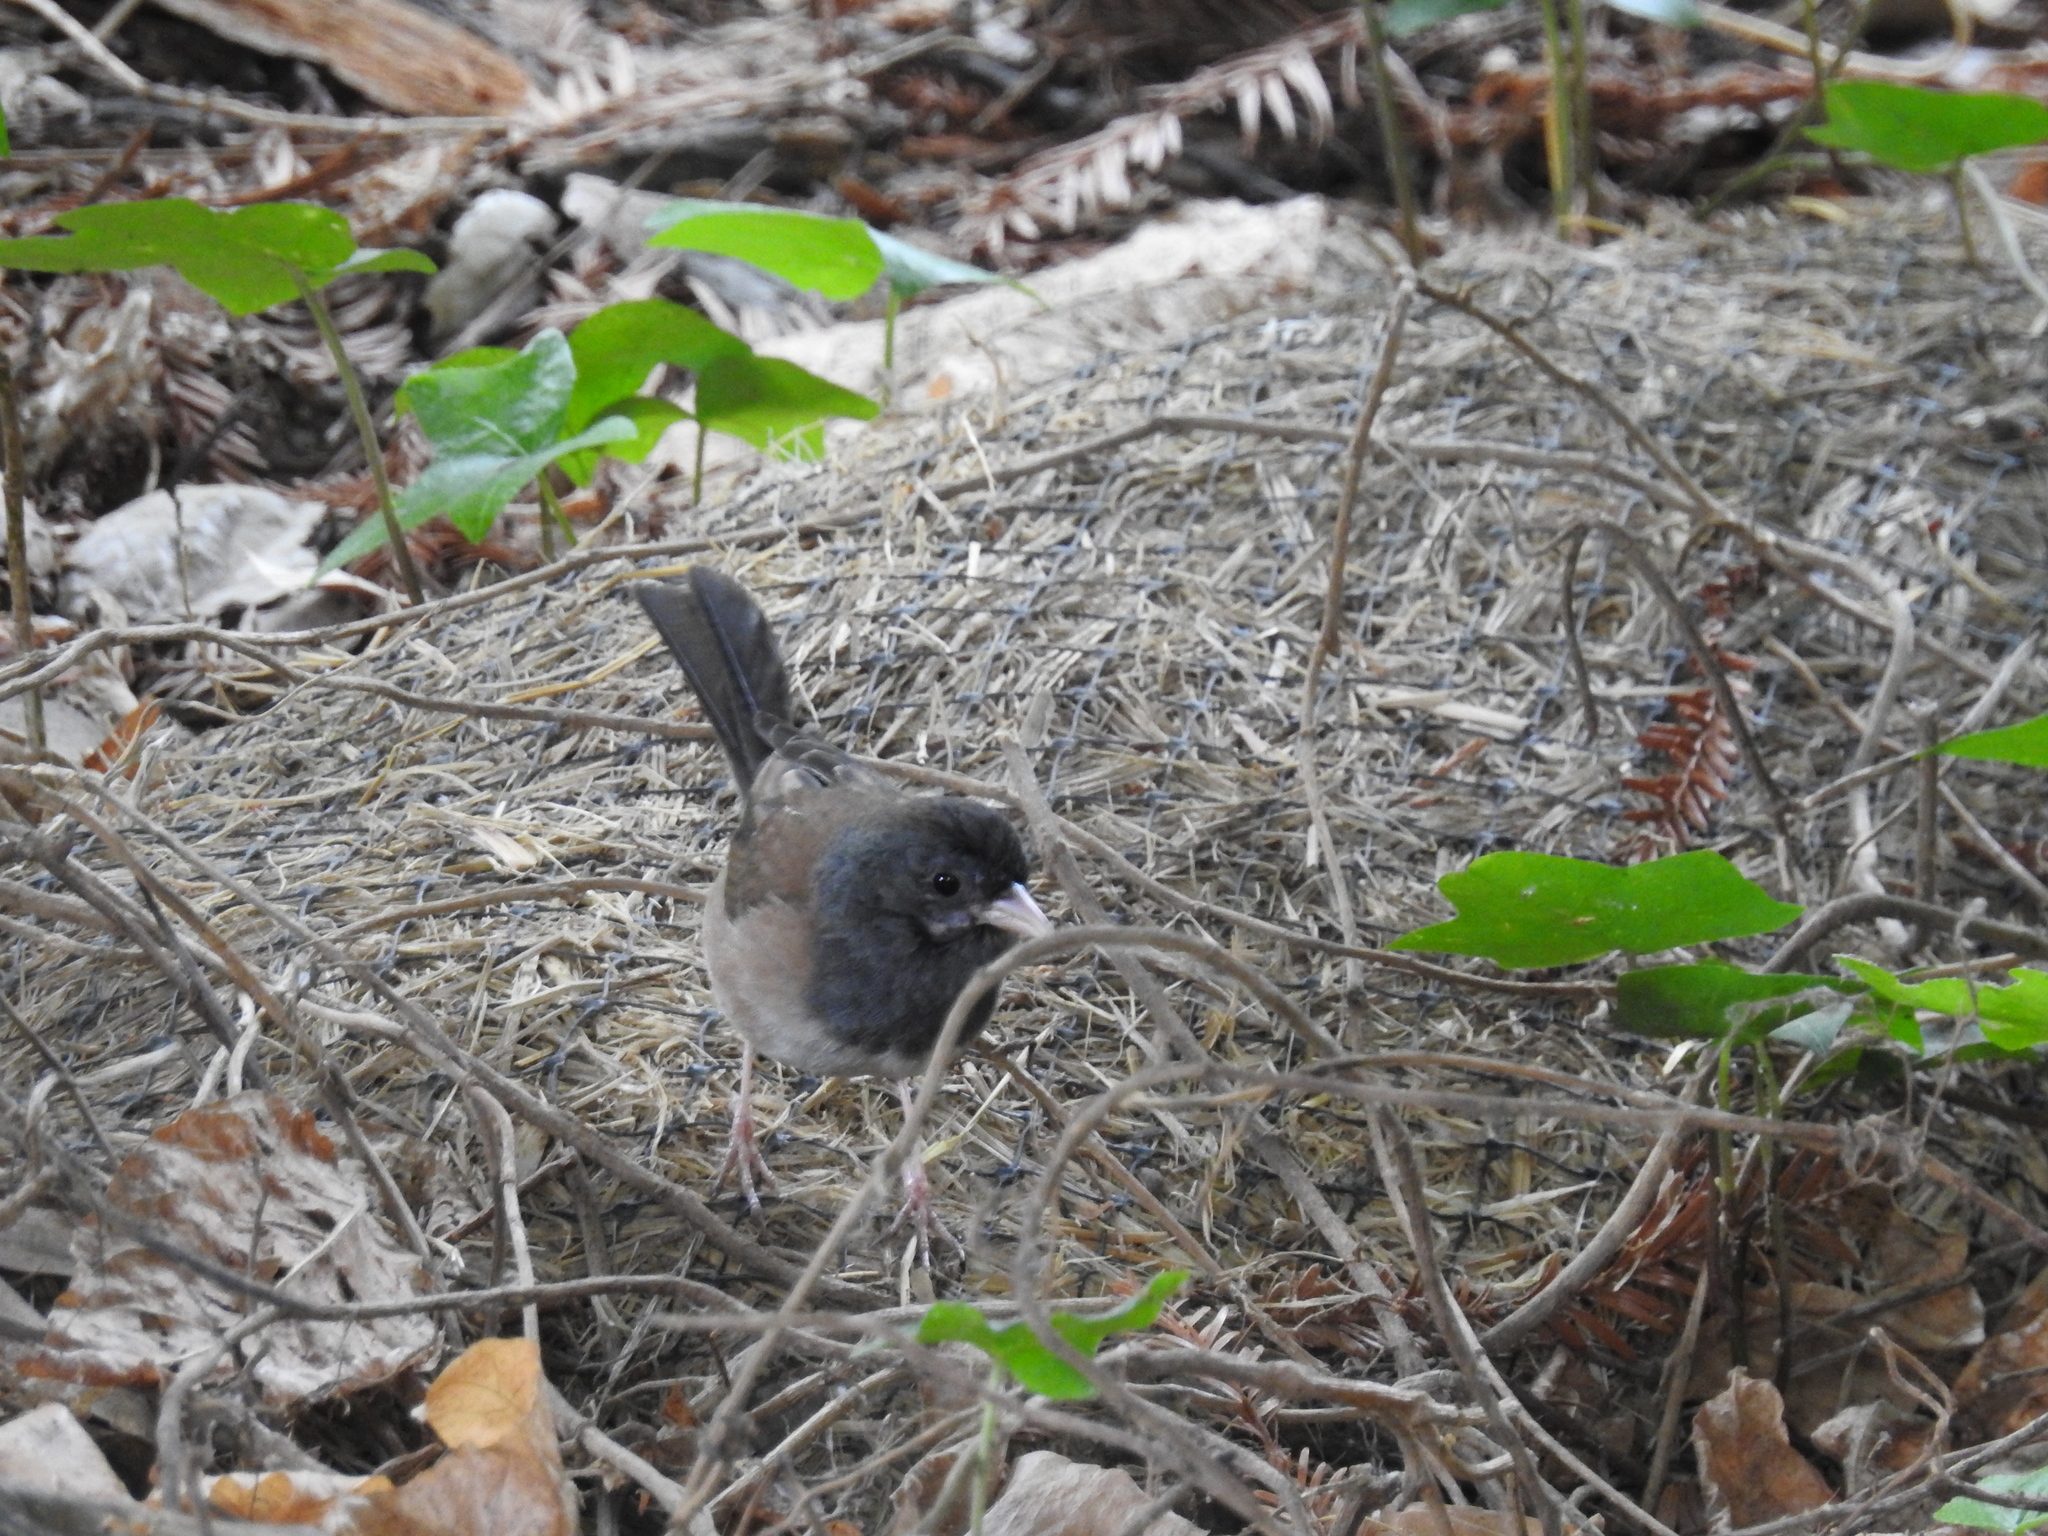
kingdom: Animalia
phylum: Chordata
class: Aves
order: Passeriformes
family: Passerellidae
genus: Junco
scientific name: Junco hyemalis
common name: Dark-eyed junco
